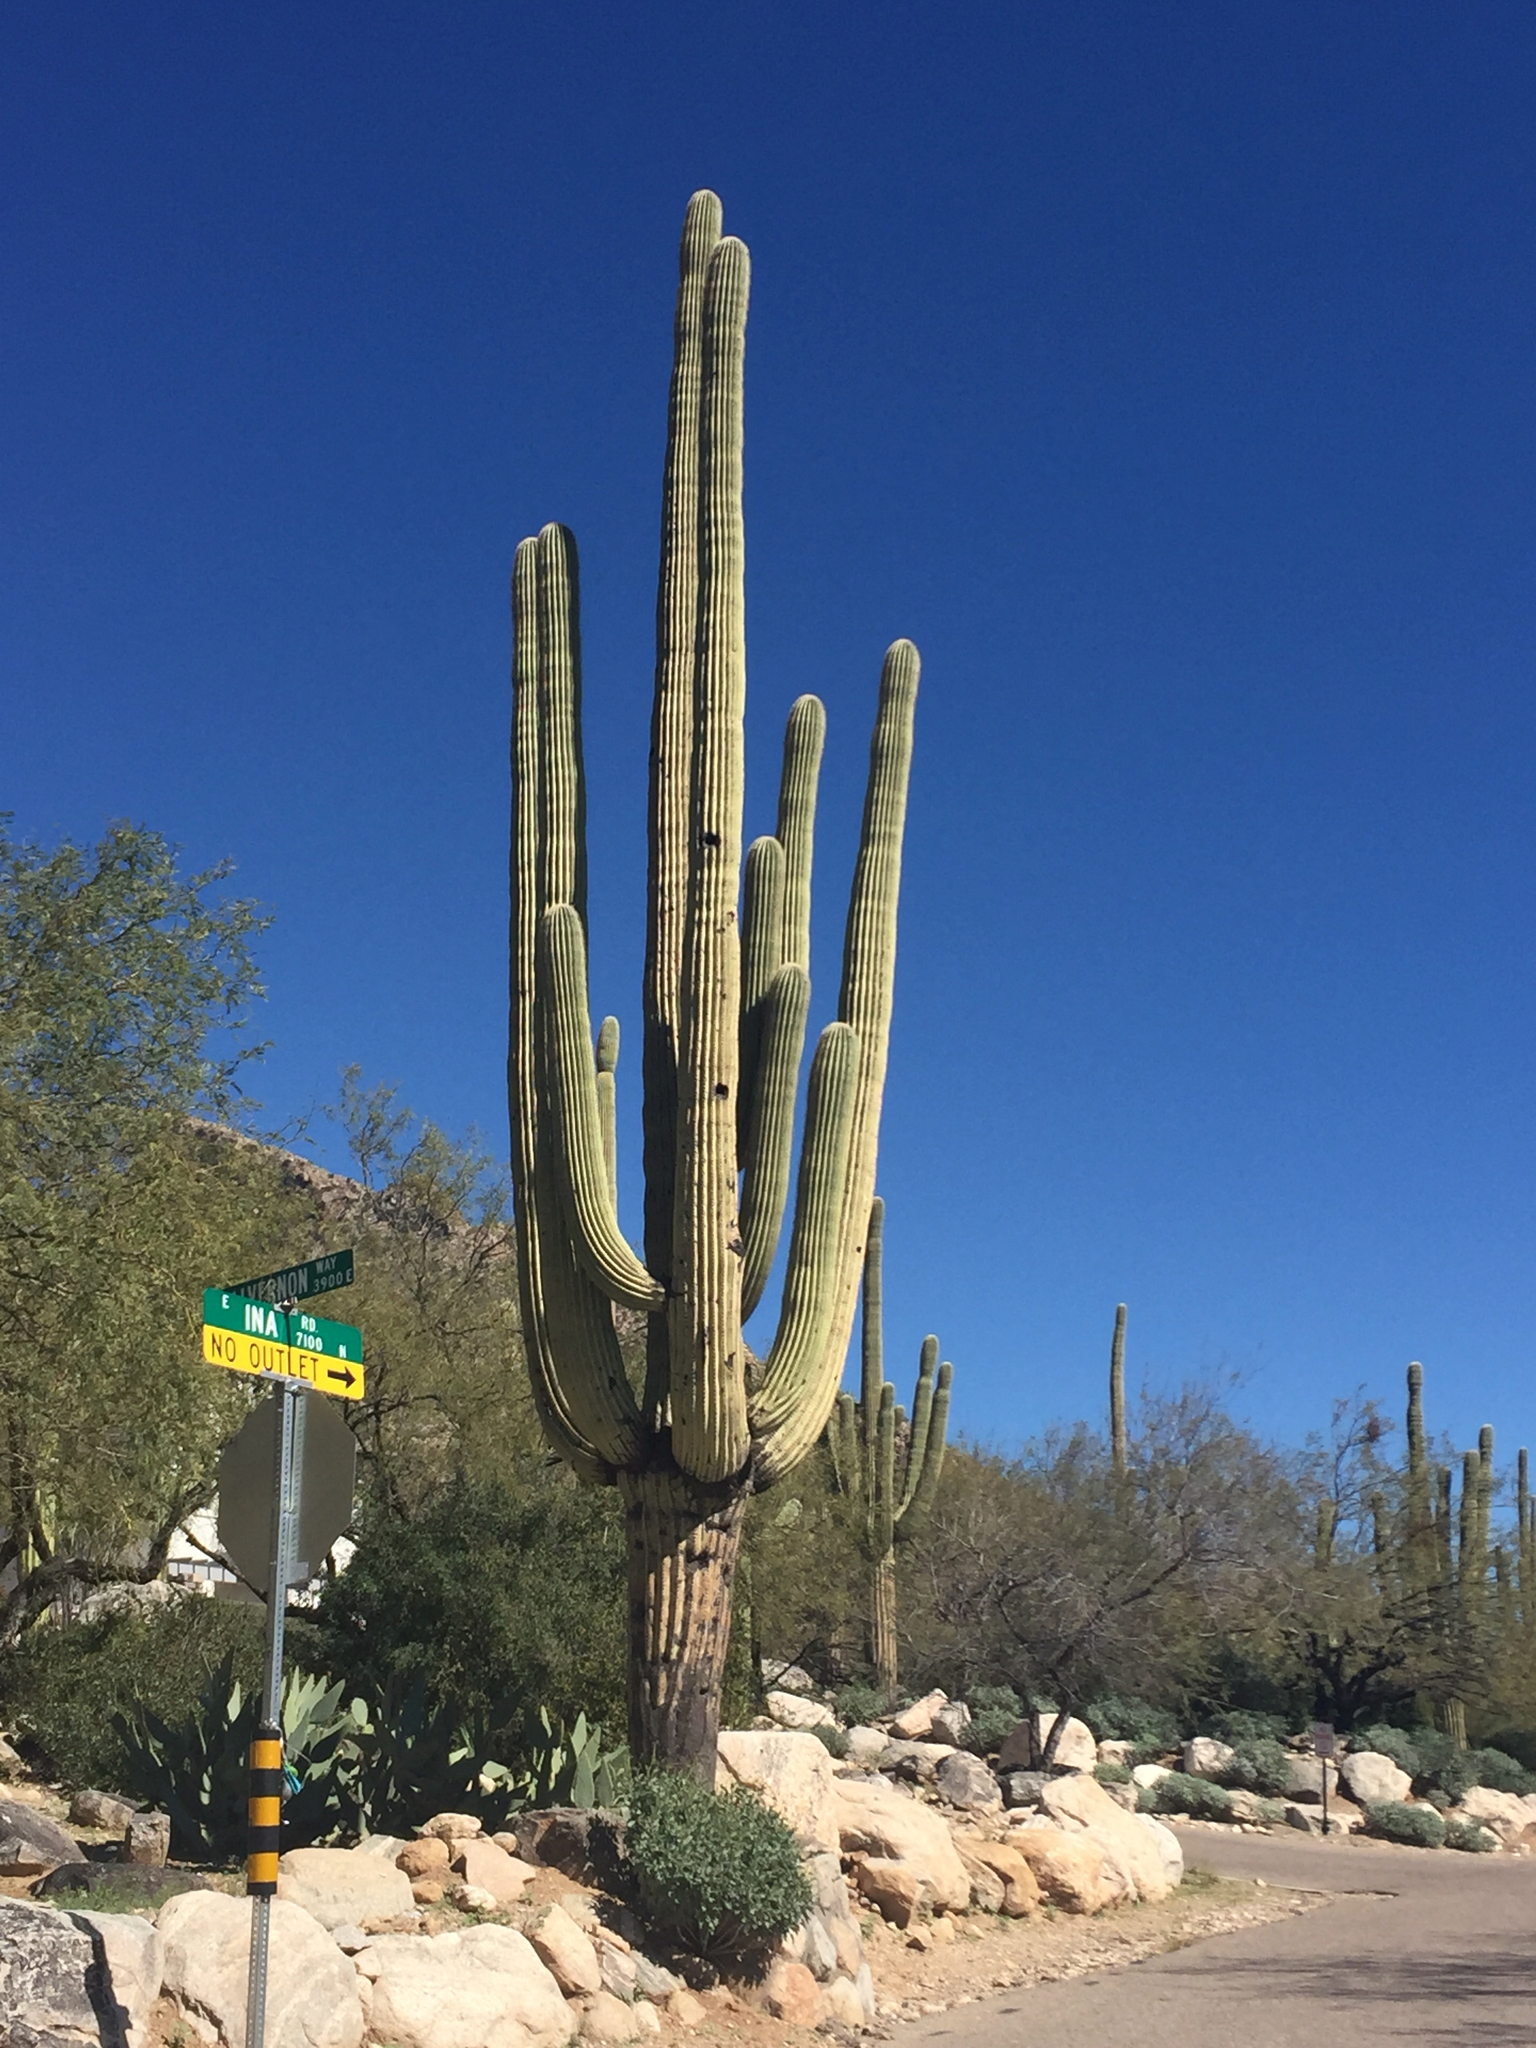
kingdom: Plantae
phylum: Tracheophyta
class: Magnoliopsida
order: Caryophyllales
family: Cactaceae
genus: Carnegiea
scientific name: Carnegiea gigantea
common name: Saguaro
